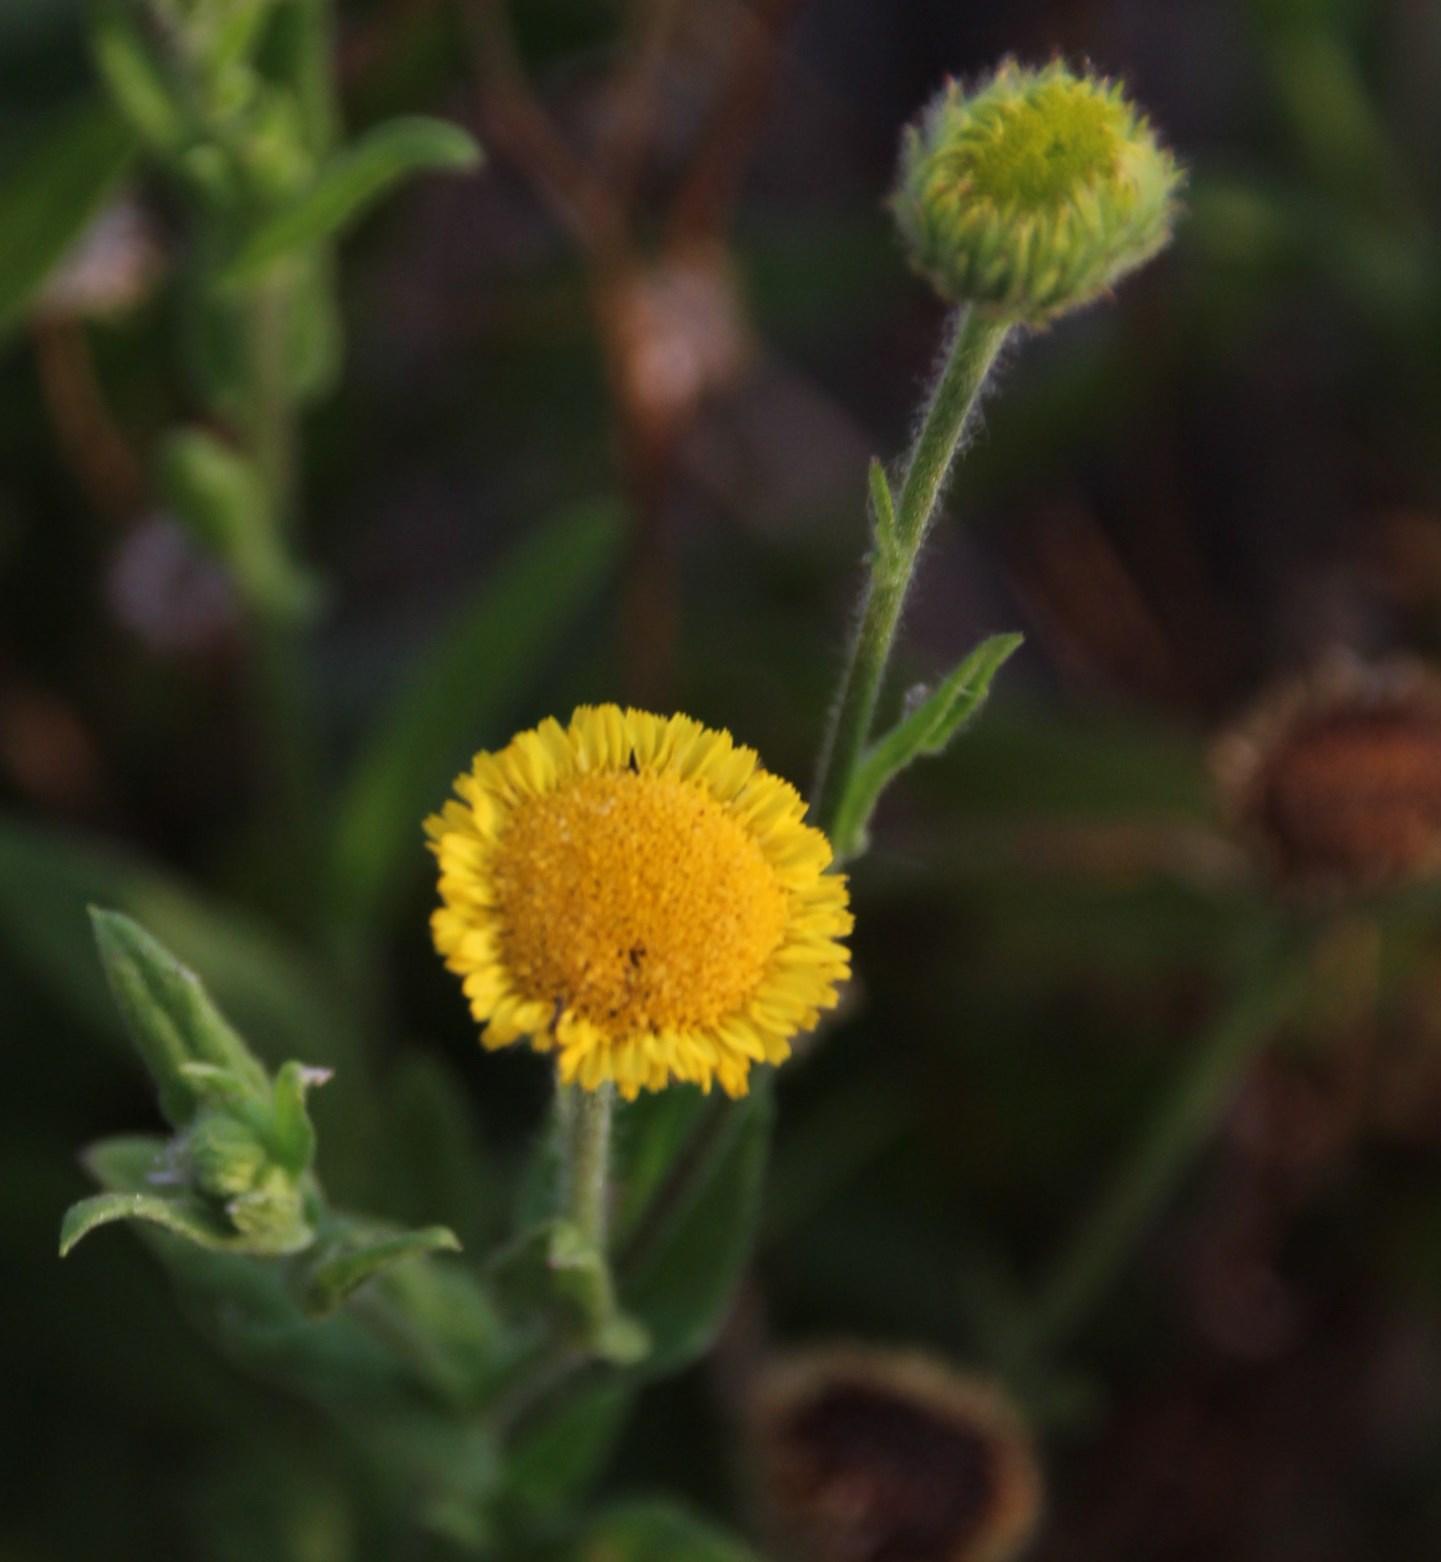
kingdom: Plantae
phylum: Tracheophyta
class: Magnoliopsida
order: Asterales
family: Asteraceae
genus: Pulicaria
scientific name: Pulicaria scabra
